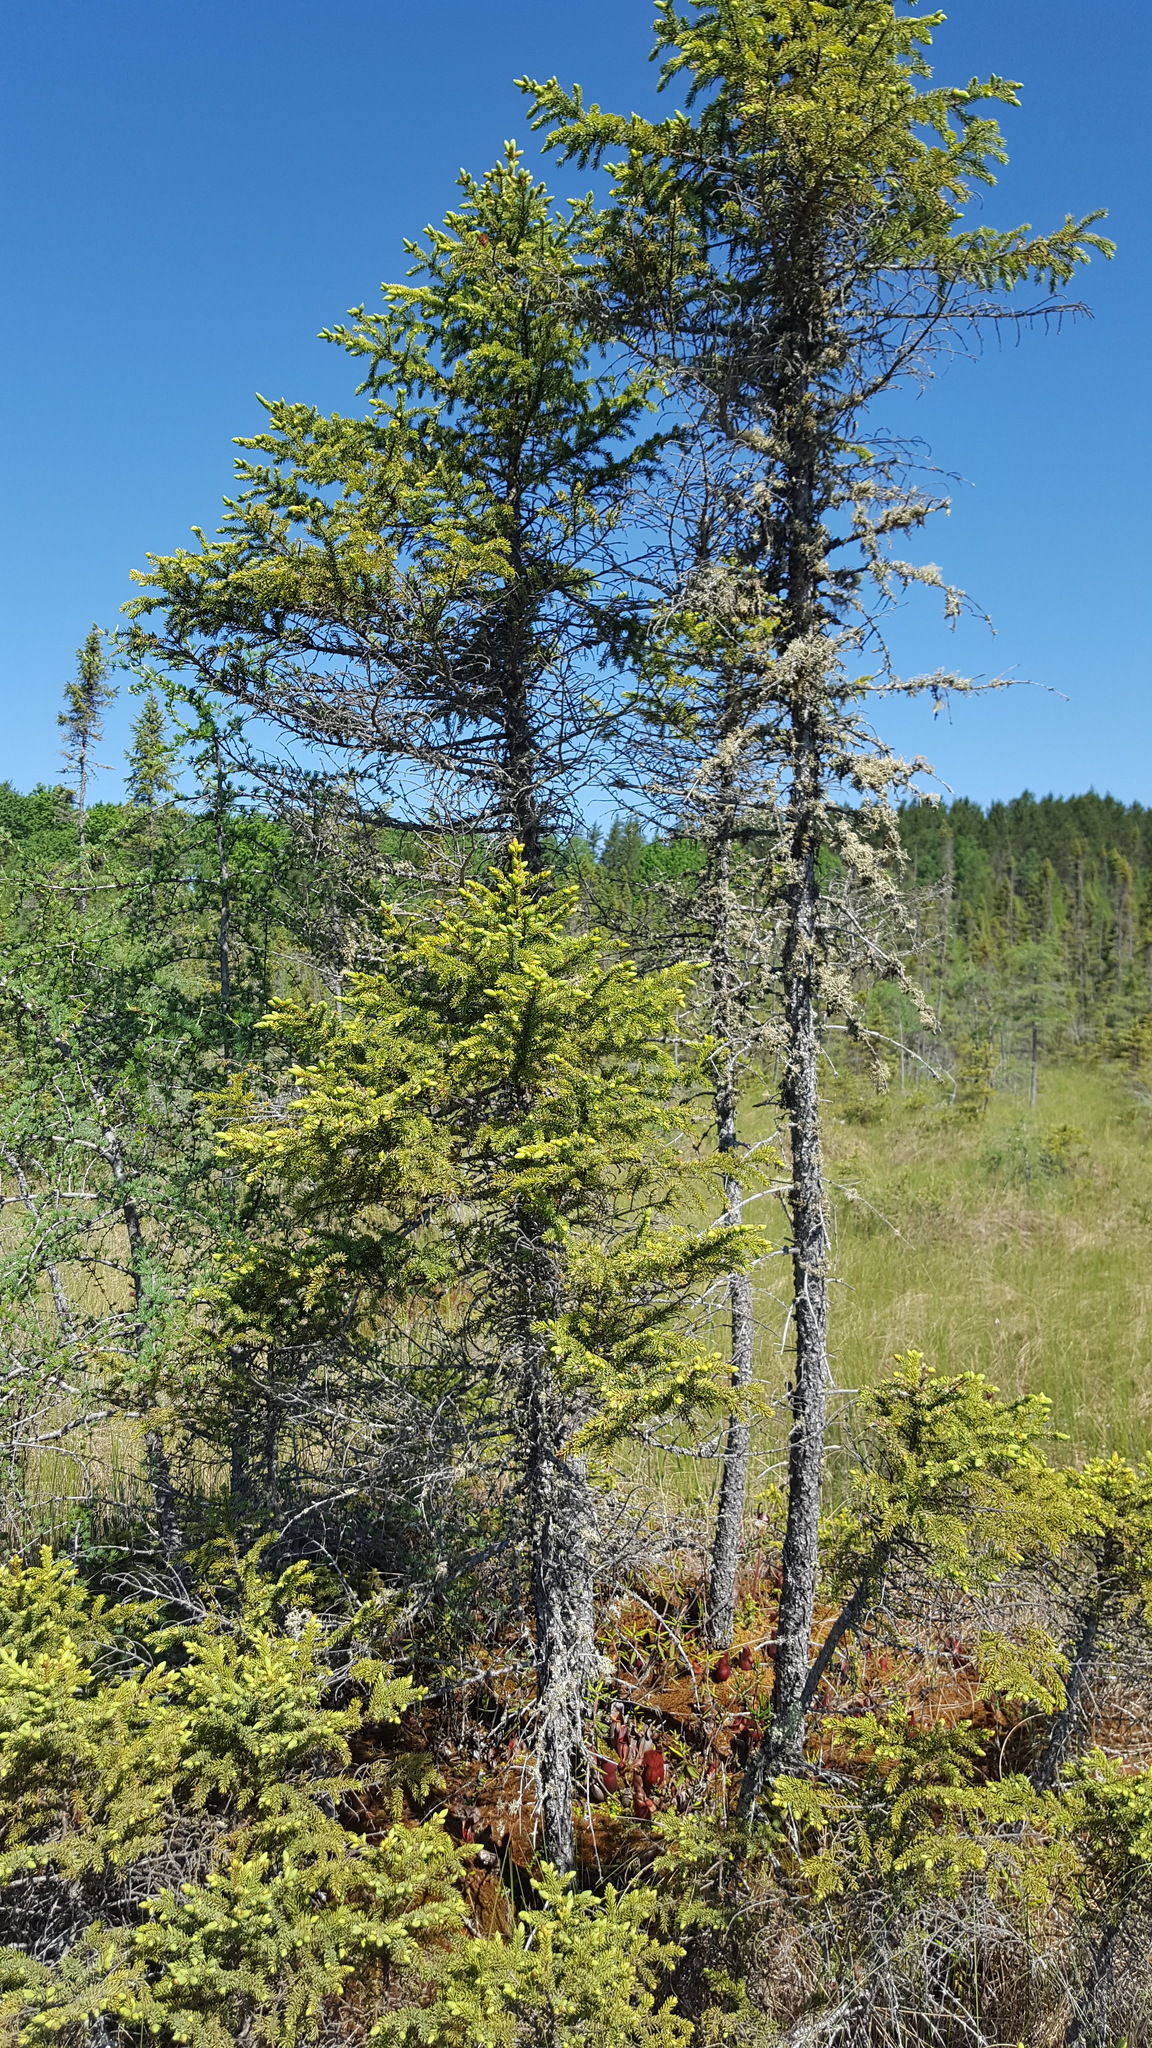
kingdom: Plantae
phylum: Tracheophyta
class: Pinopsida
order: Pinales
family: Pinaceae
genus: Picea
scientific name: Picea mariana
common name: Black spruce
